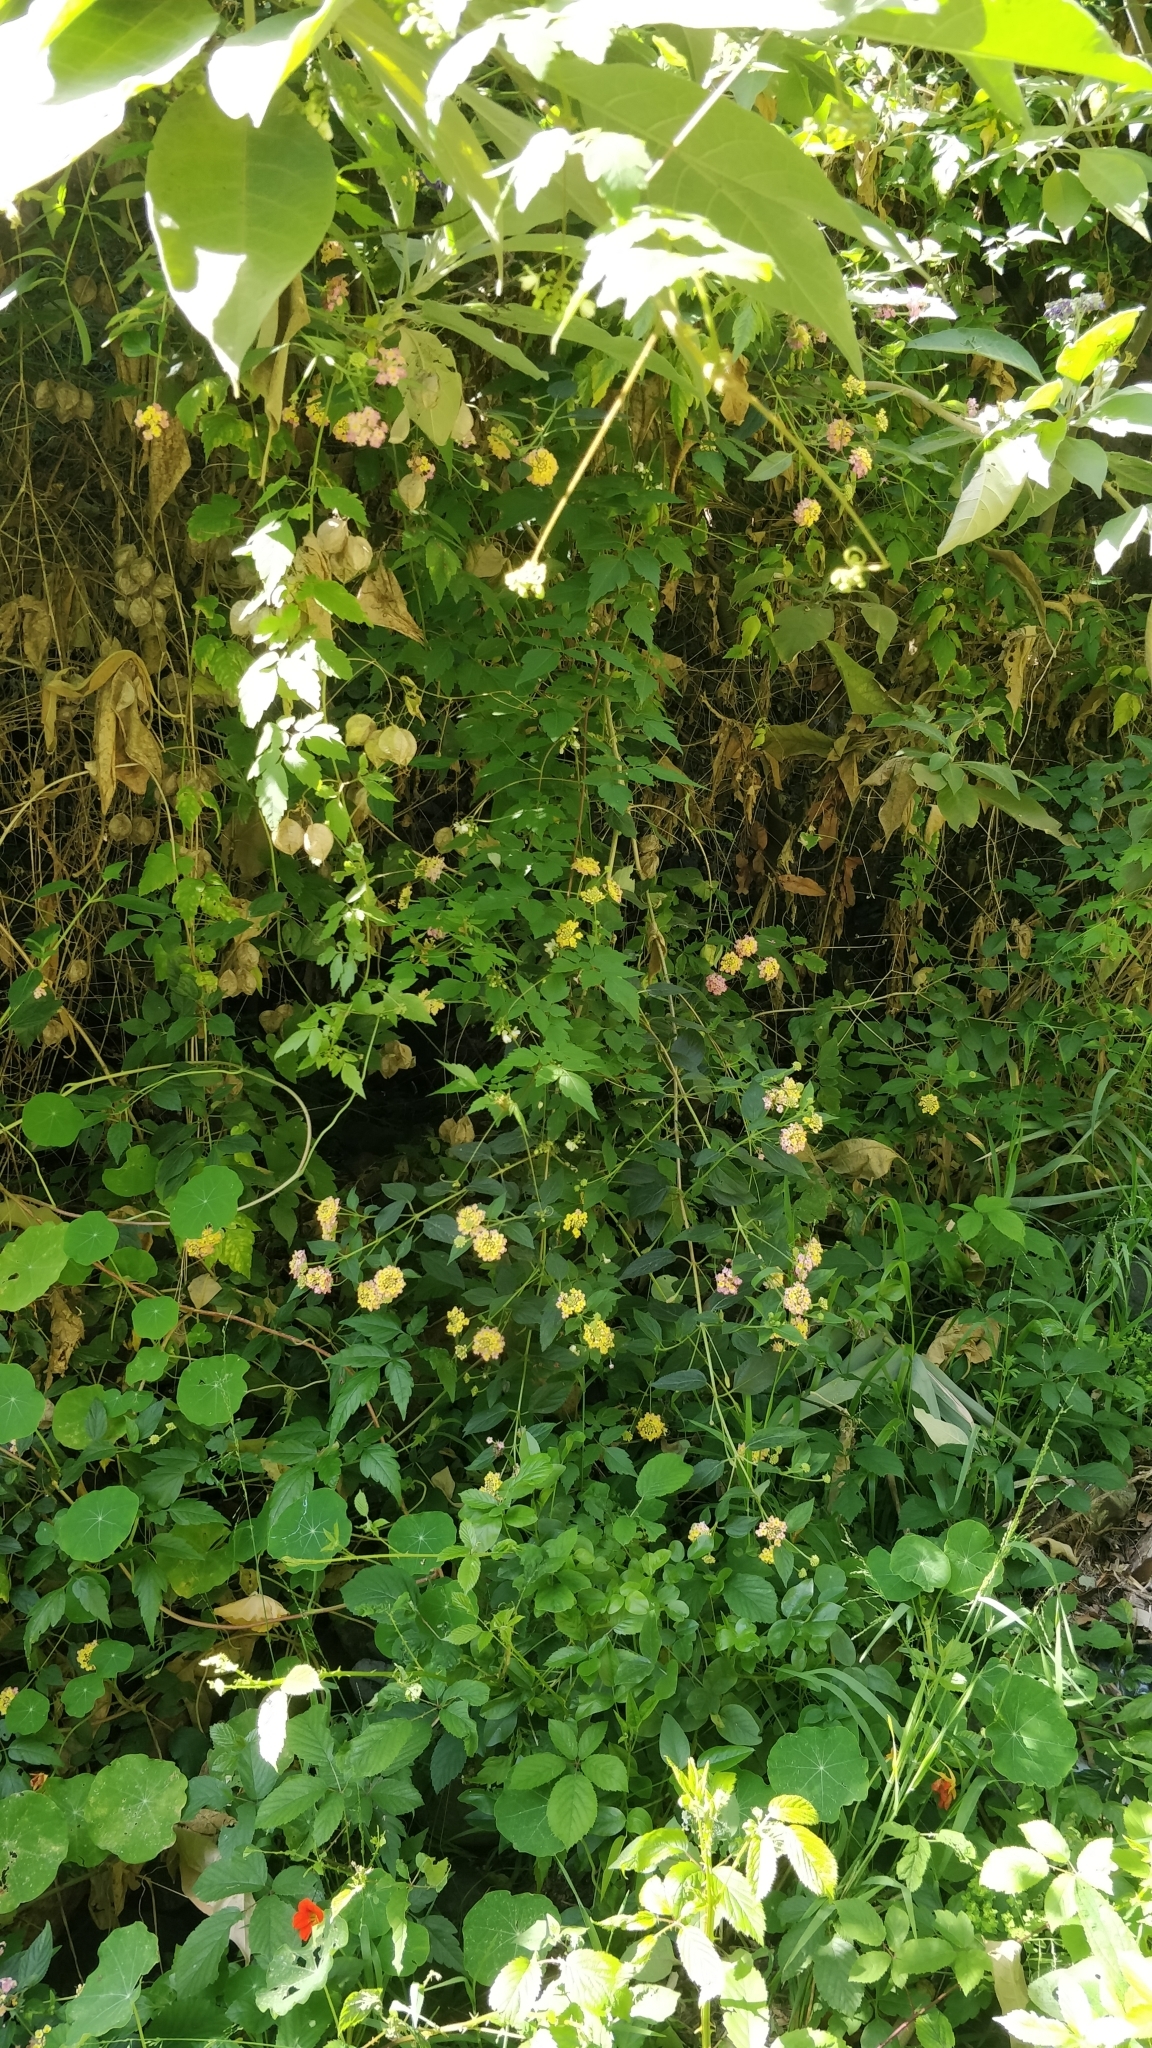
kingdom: Plantae
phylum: Tracheophyta
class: Magnoliopsida
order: Lamiales
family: Verbenaceae
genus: Lantana
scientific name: Lantana camara
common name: Lantana
